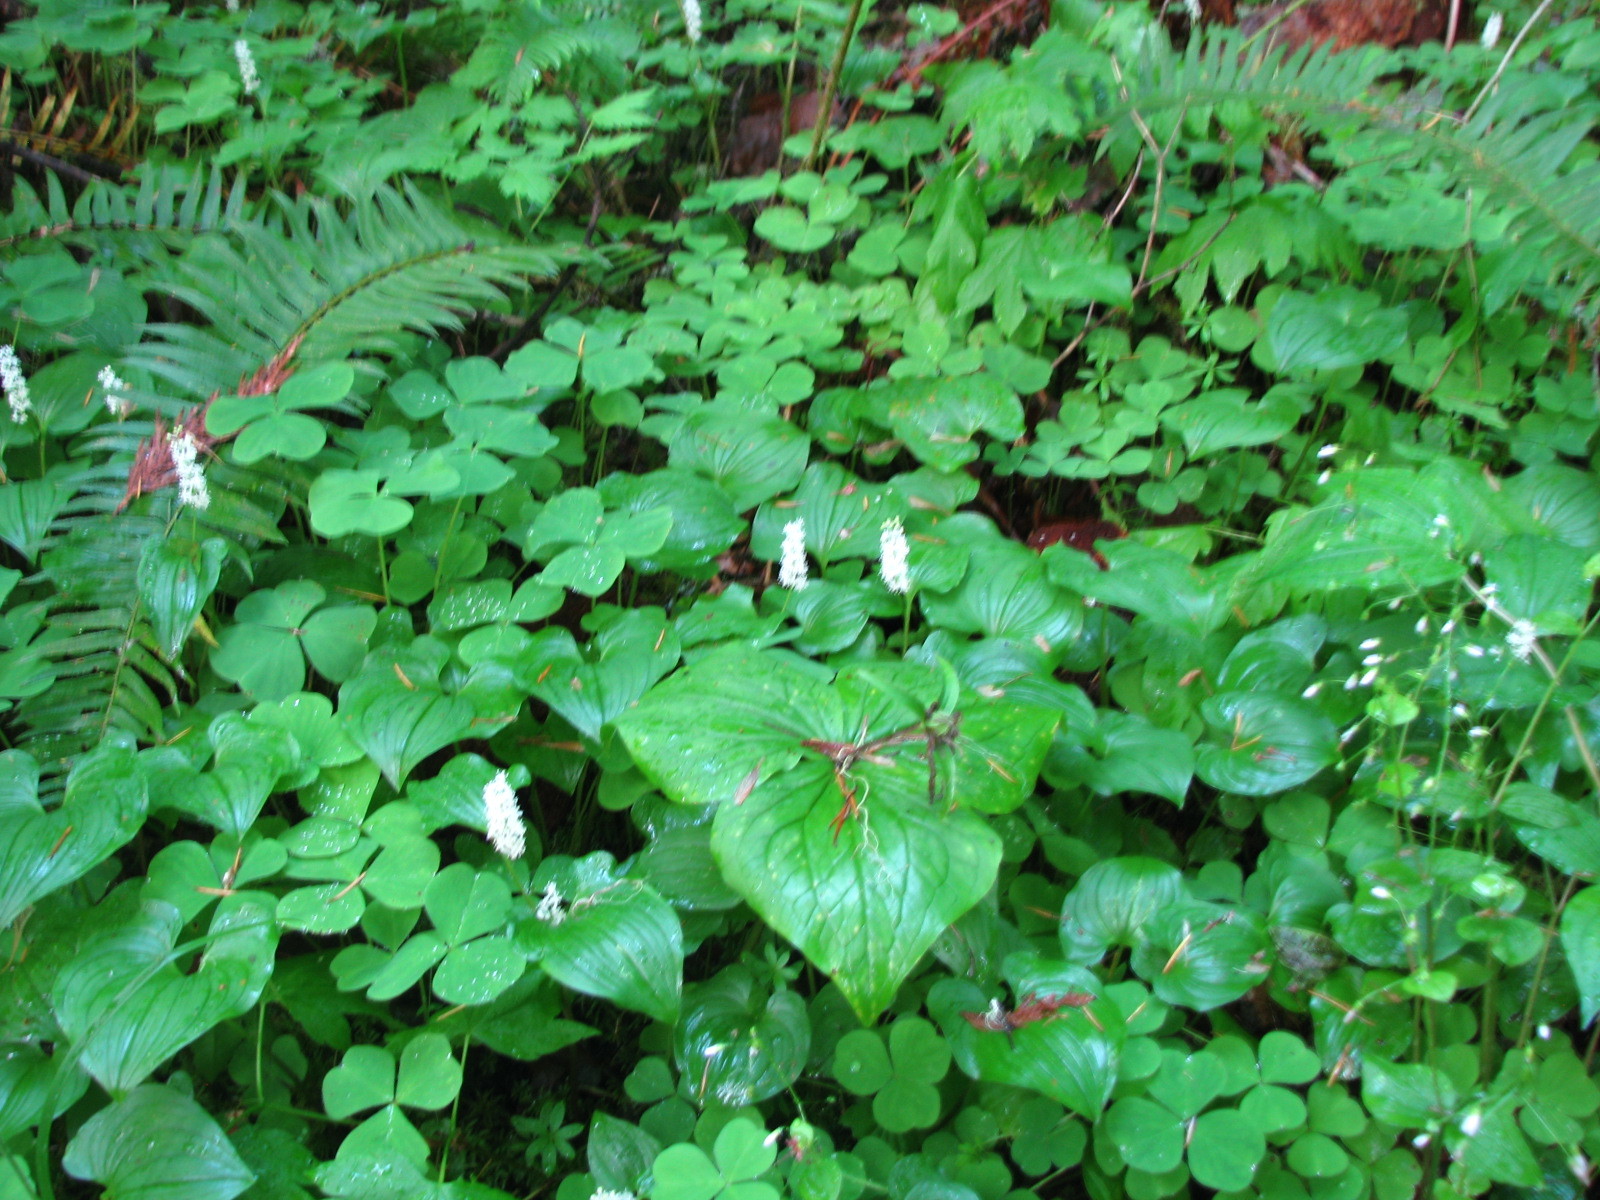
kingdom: Plantae
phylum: Tracheophyta
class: Liliopsida
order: Asparagales
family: Asparagaceae
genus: Maianthemum
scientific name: Maianthemum dilatatum
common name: False lily-of-the-valley
